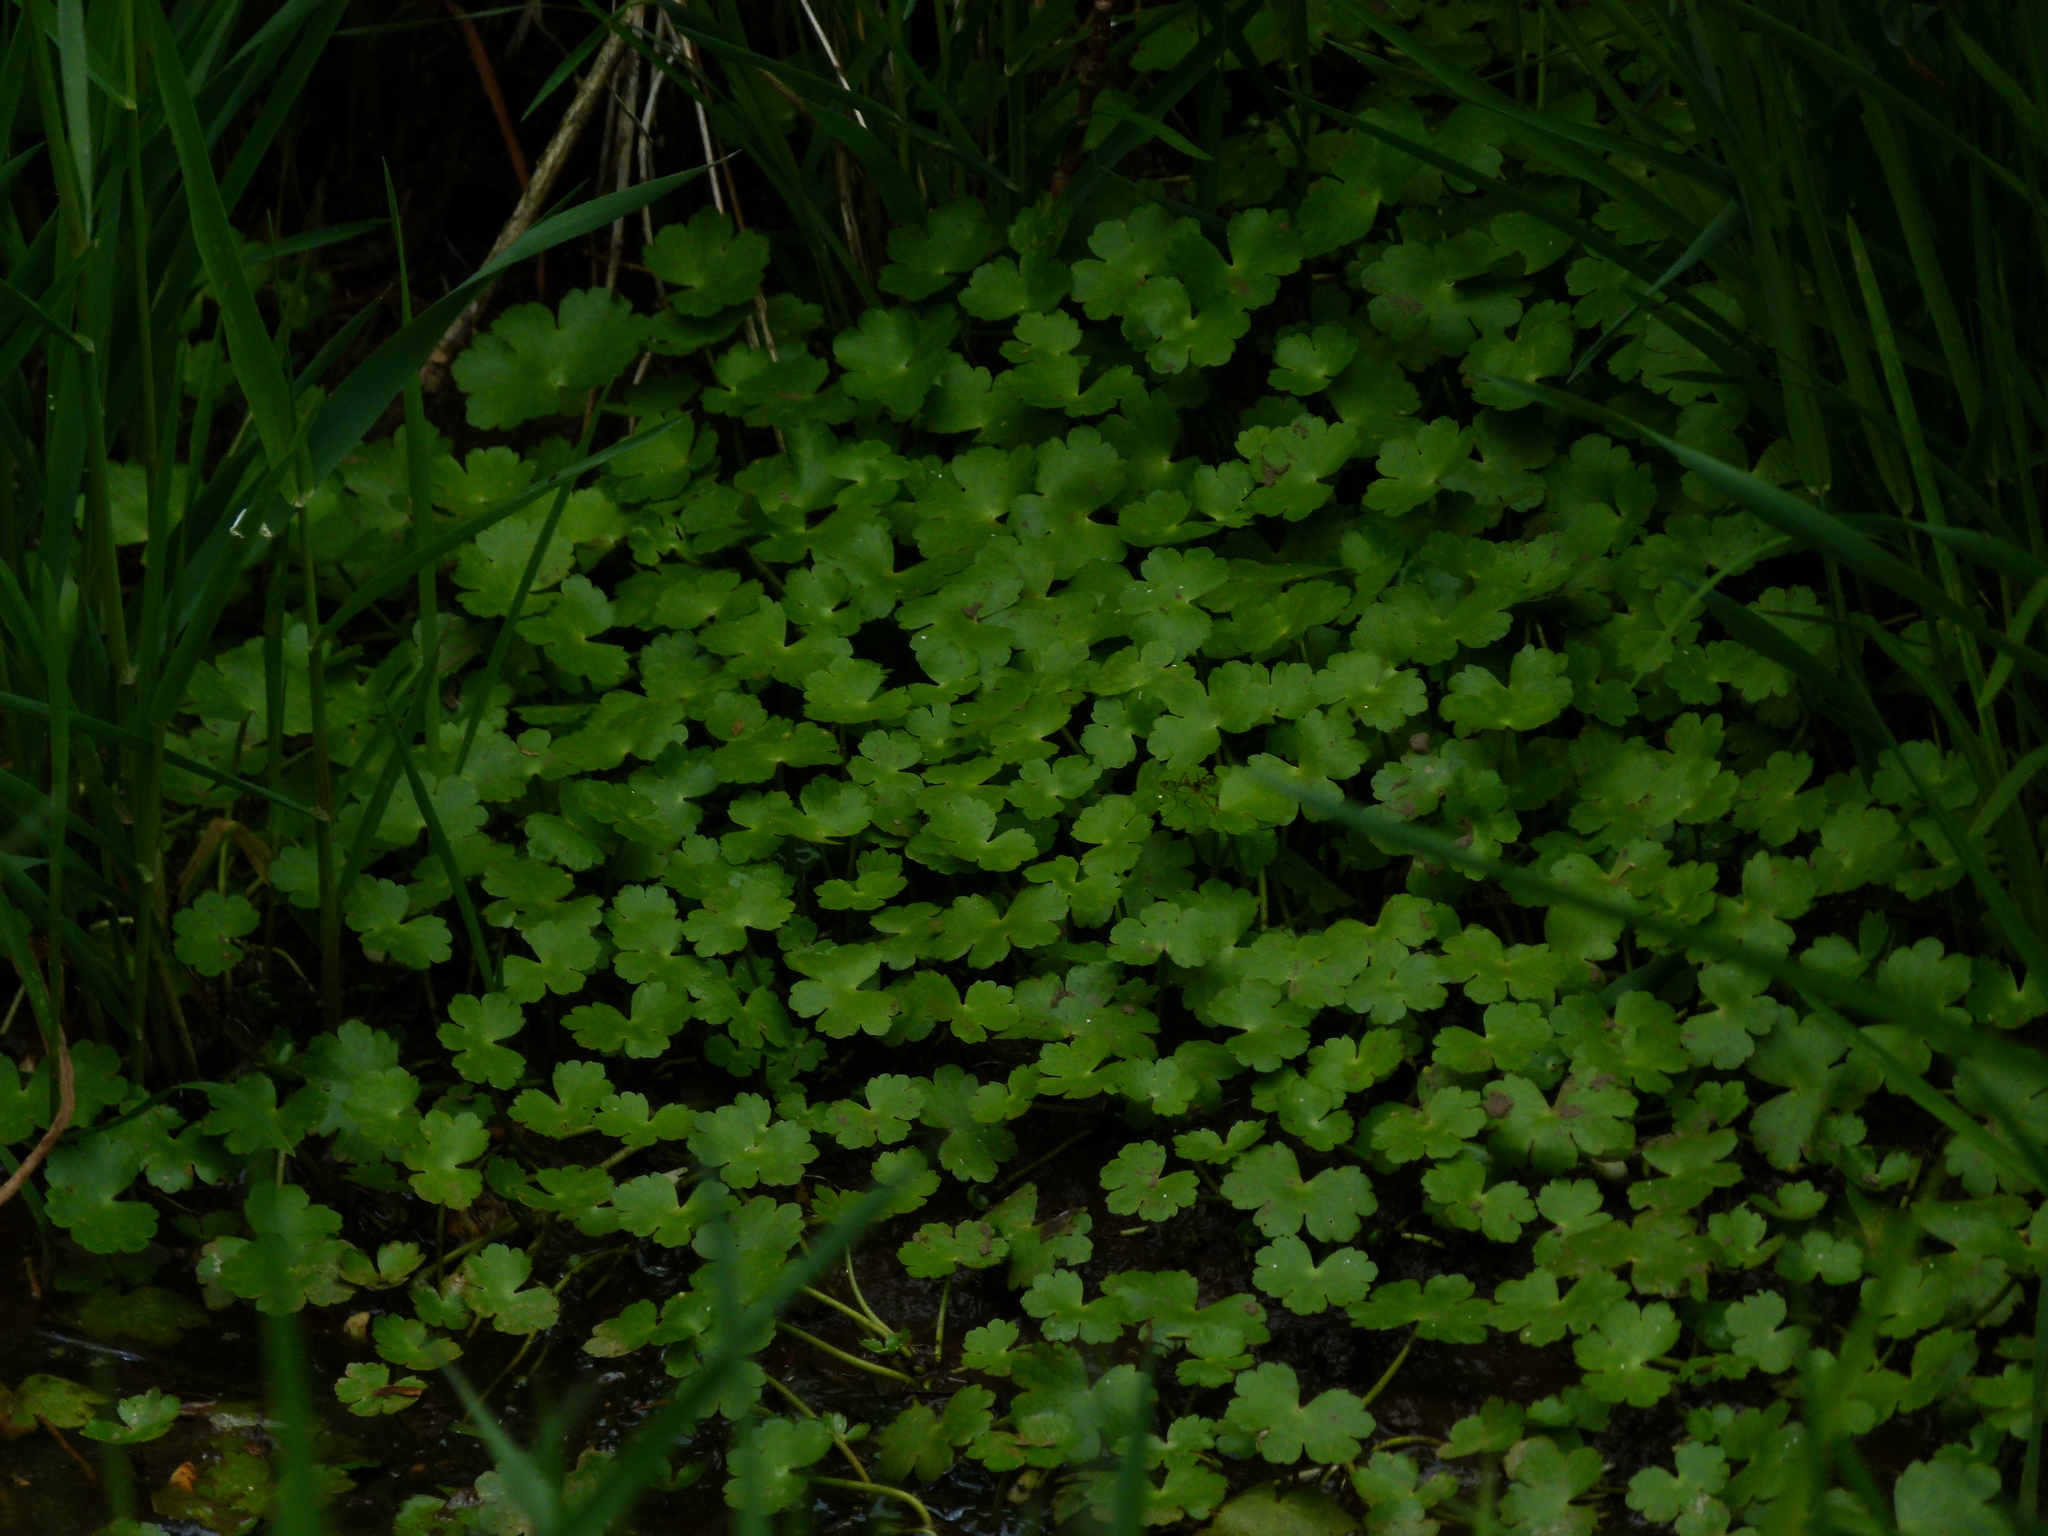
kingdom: Plantae
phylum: Tracheophyta
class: Magnoliopsida
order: Apiales
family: Araliaceae
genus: Hydrocotyle
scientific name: Hydrocotyle ranunculoides
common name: Floating pennywort
